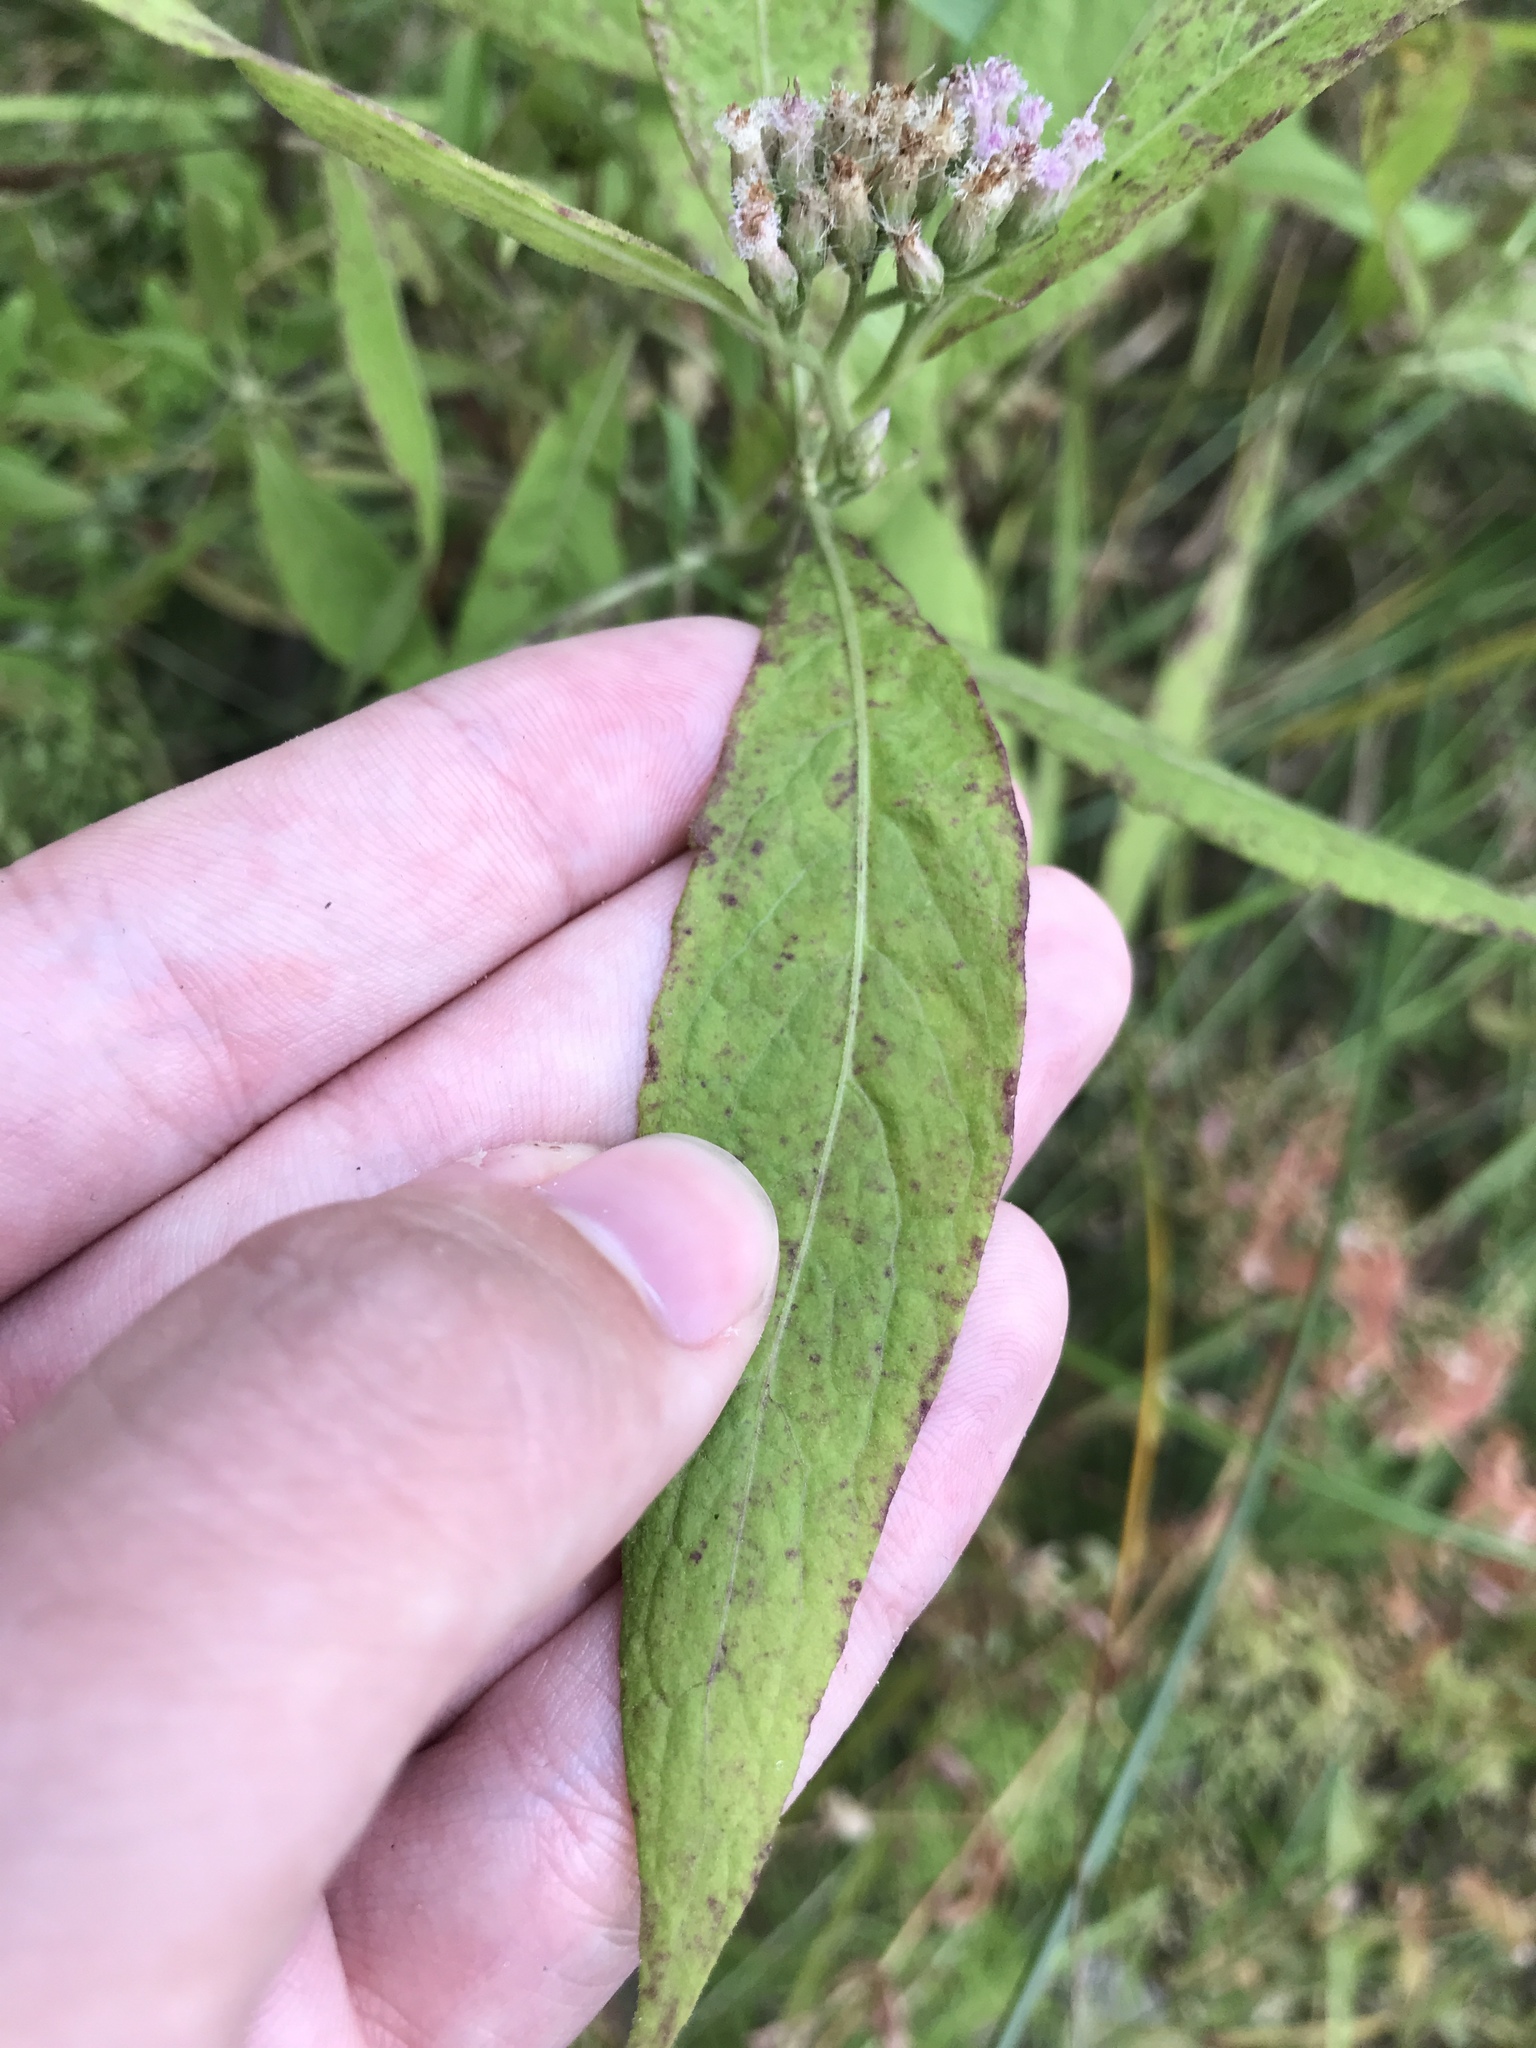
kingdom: Plantae
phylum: Tracheophyta
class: Magnoliopsida
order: Asterales
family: Asteraceae
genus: Pluchea
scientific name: Pluchea camphorata
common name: Camphor pluchea
